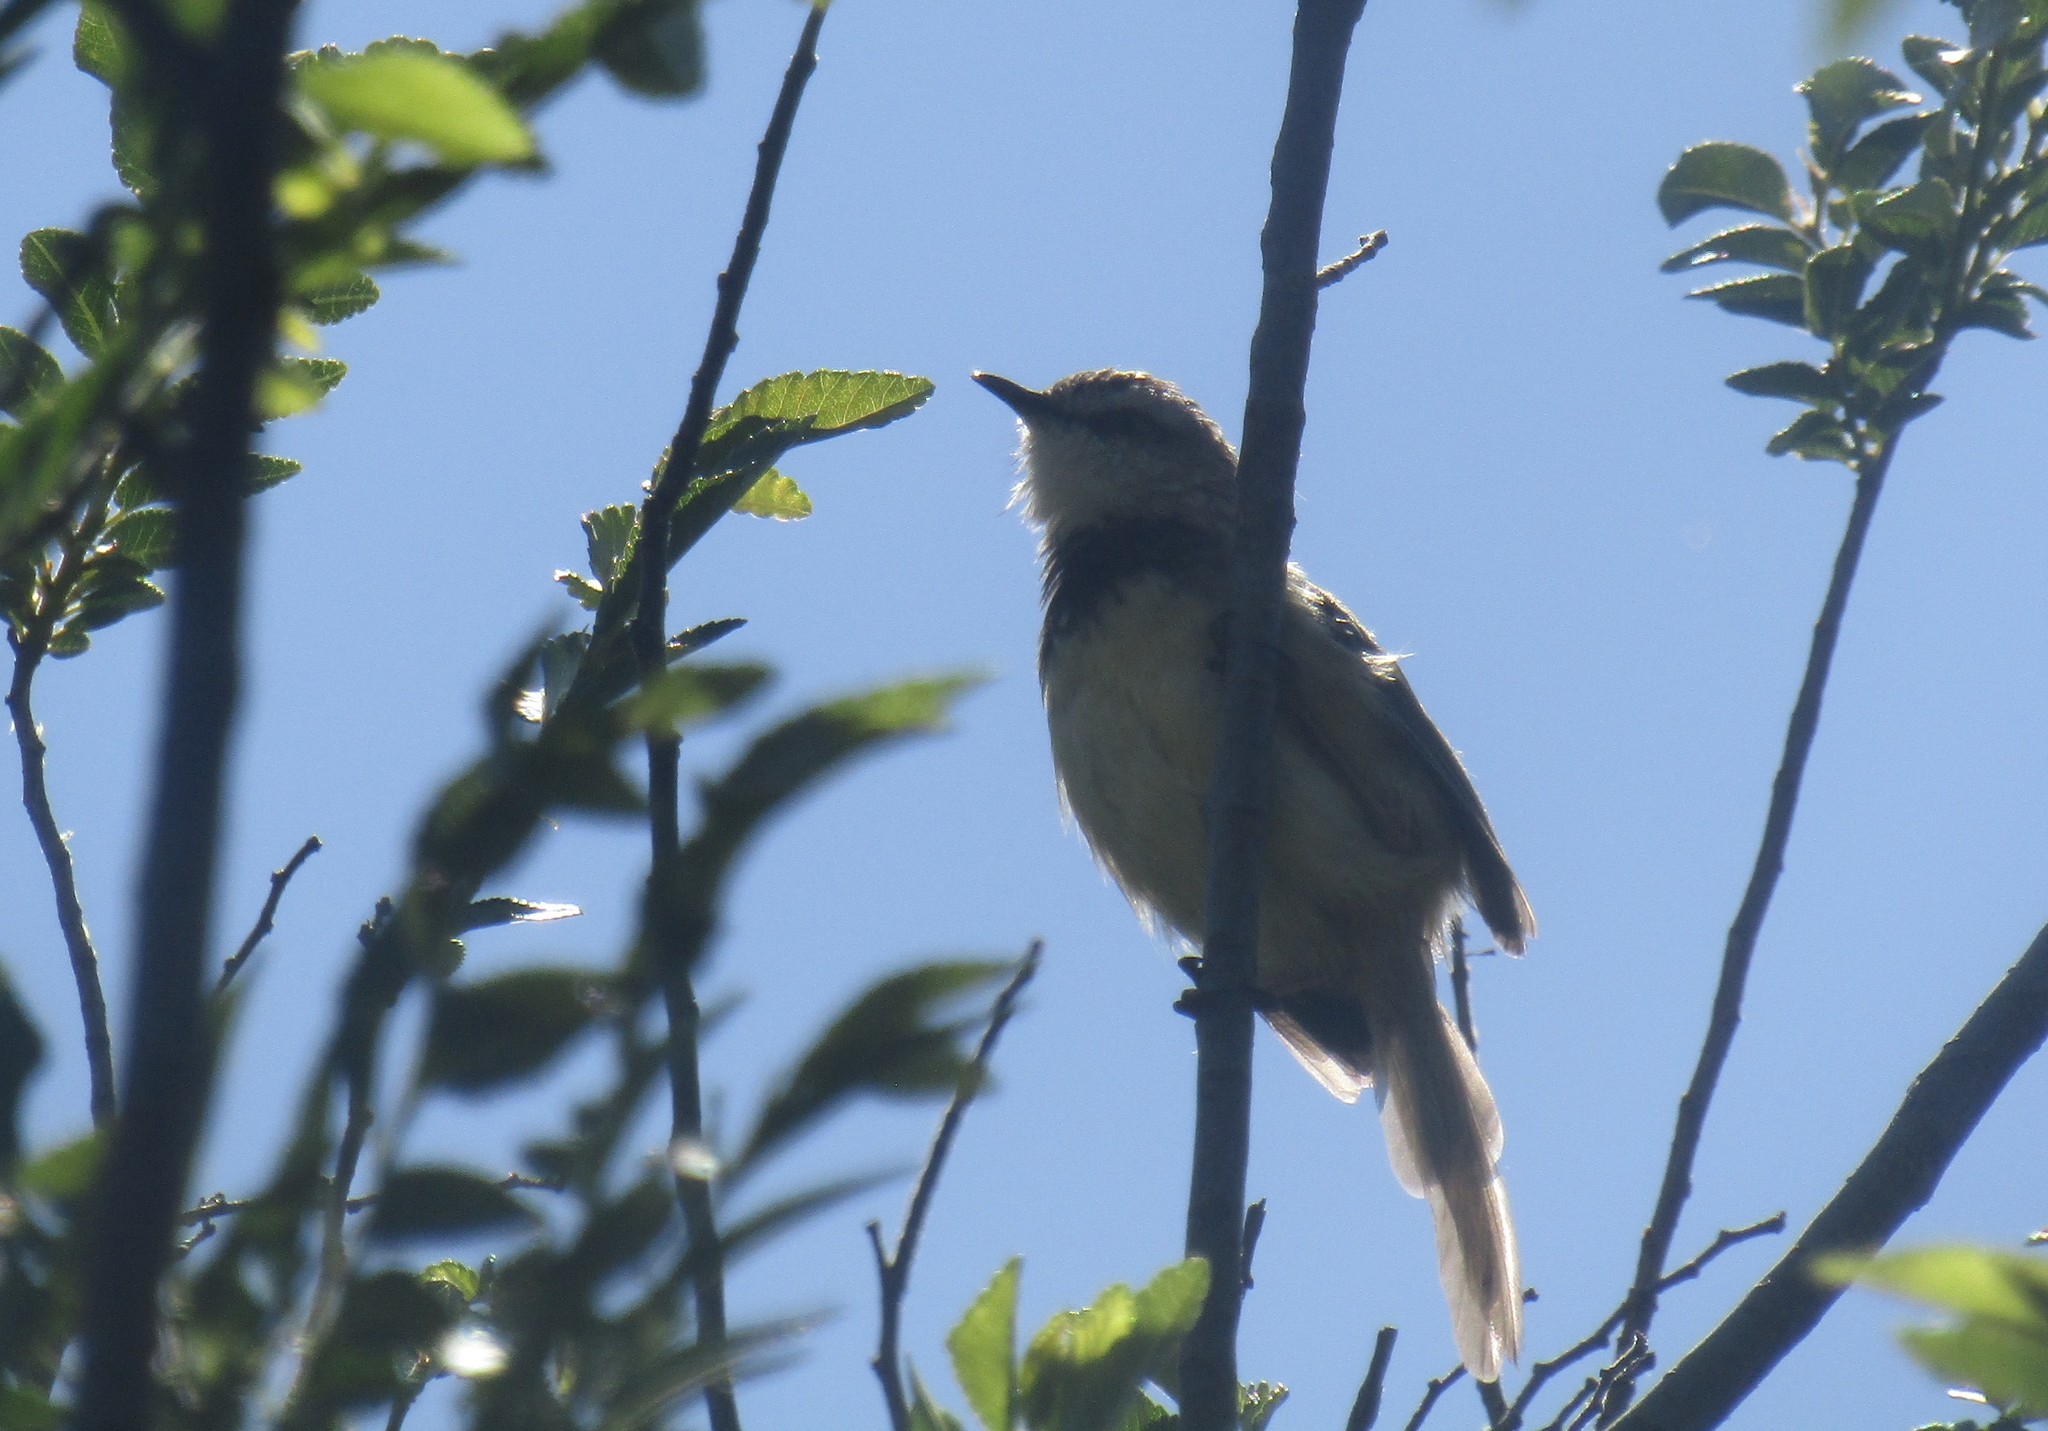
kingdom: Animalia
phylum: Chordata
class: Aves
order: Passeriformes
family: Cisticolidae
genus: Prinia
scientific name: Prinia flavicans
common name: Black-chested prinia
